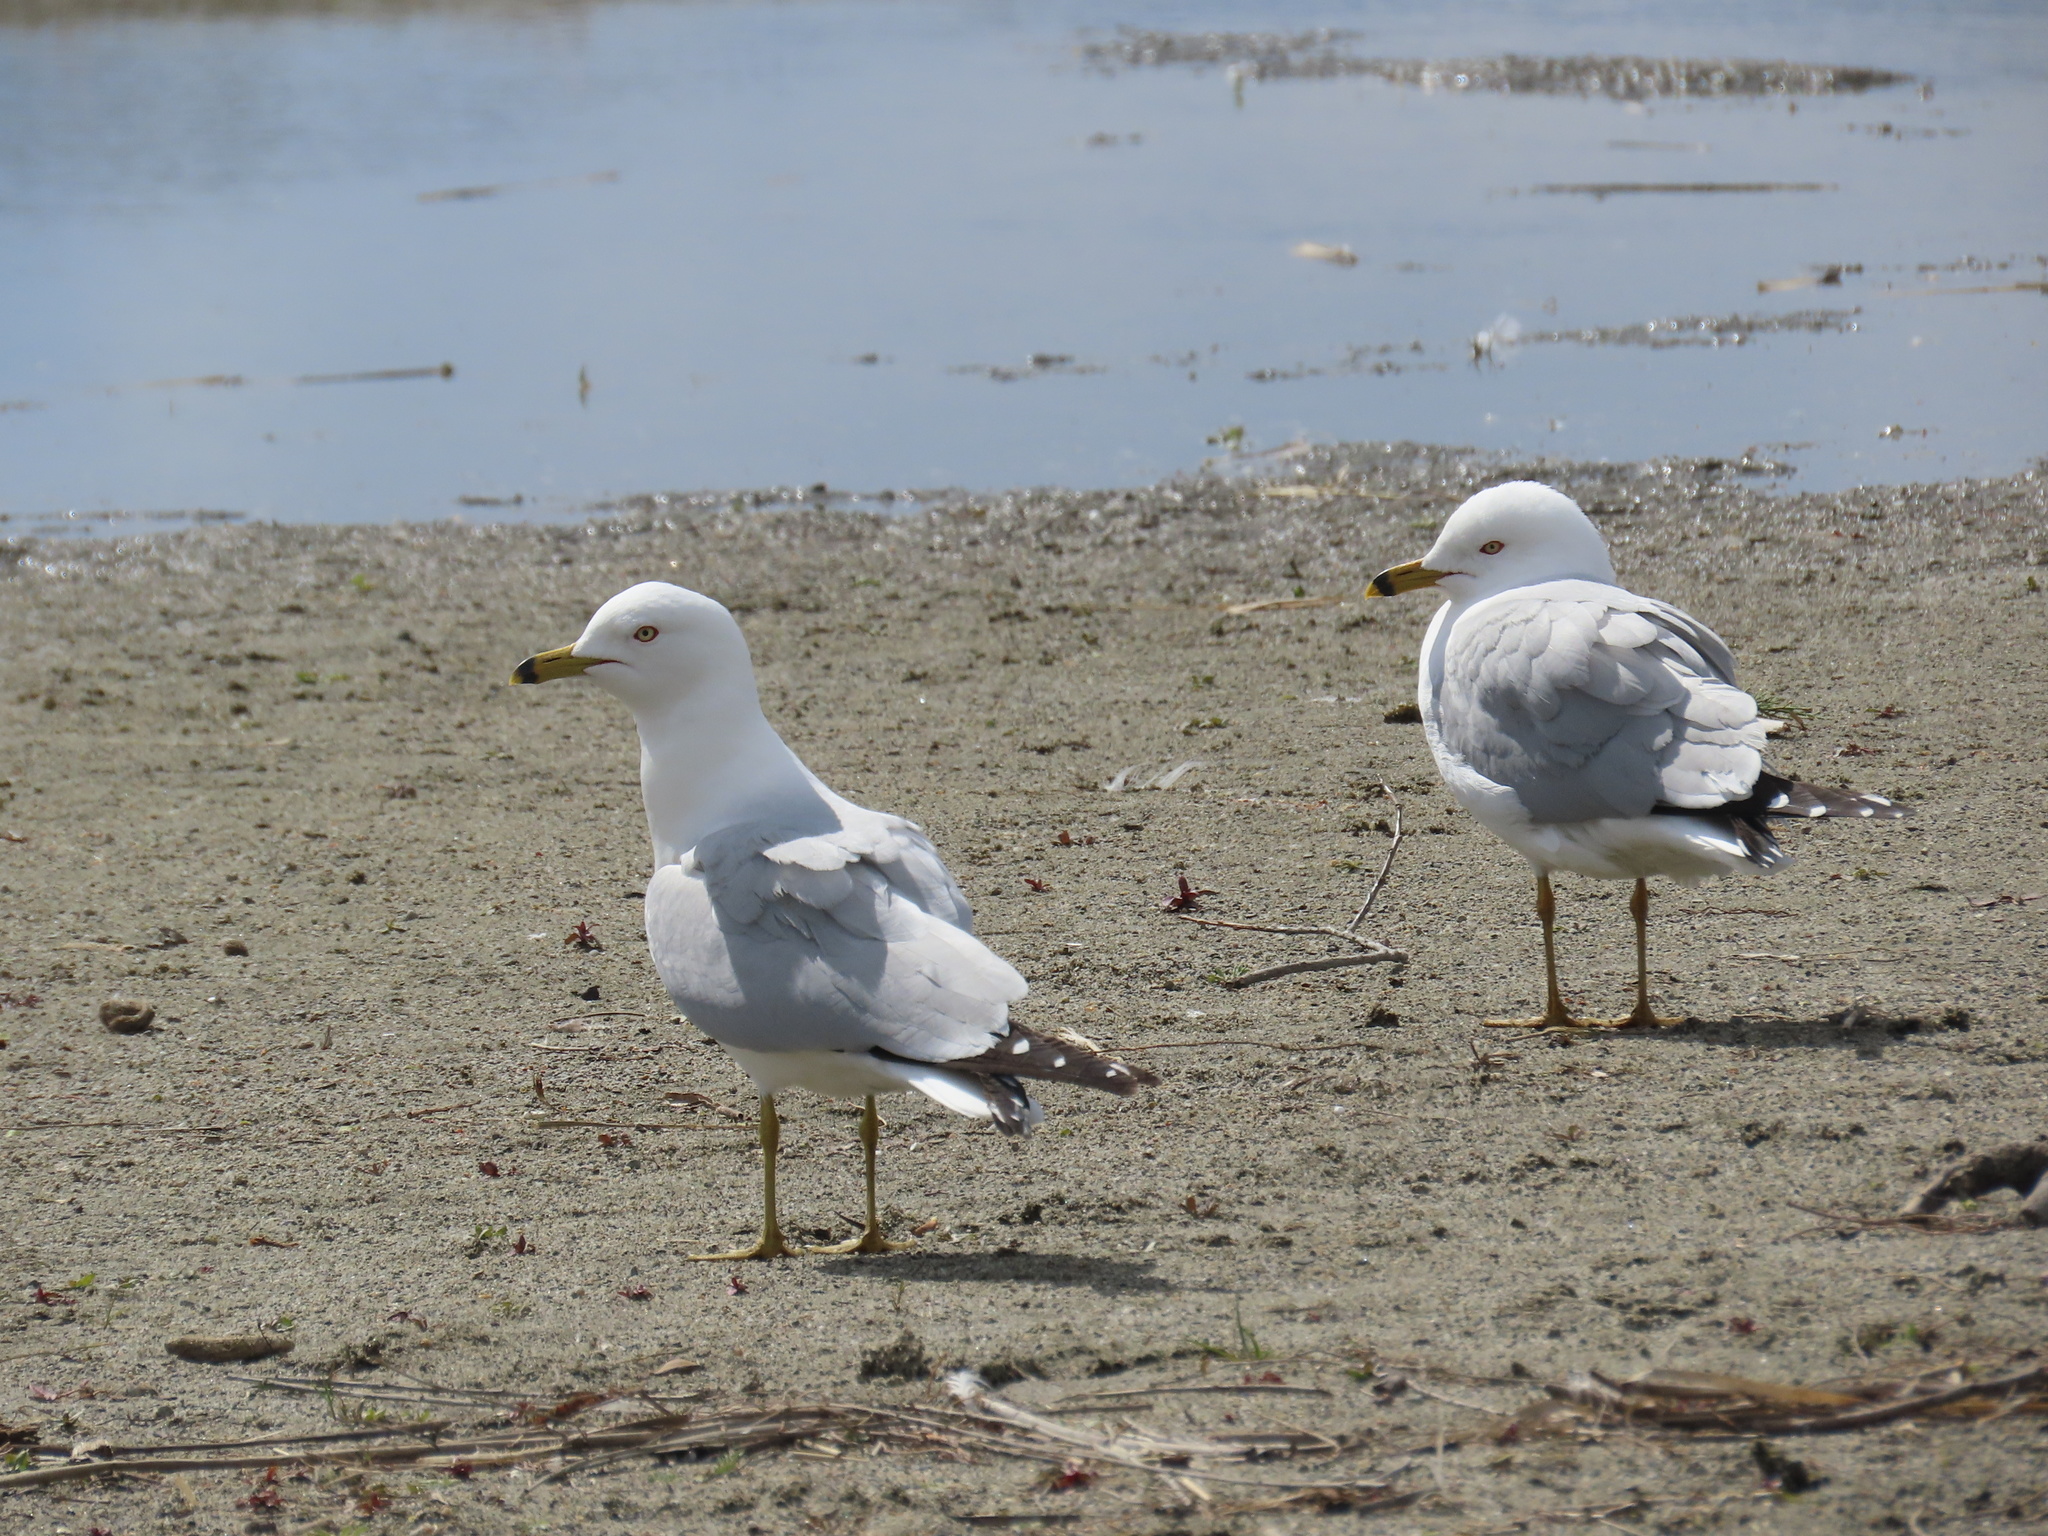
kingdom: Animalia
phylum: Chordata
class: Aves
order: Charadriiformes
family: Laridae
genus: Larus
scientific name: Larus delawarensis
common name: Ring-billed gull
